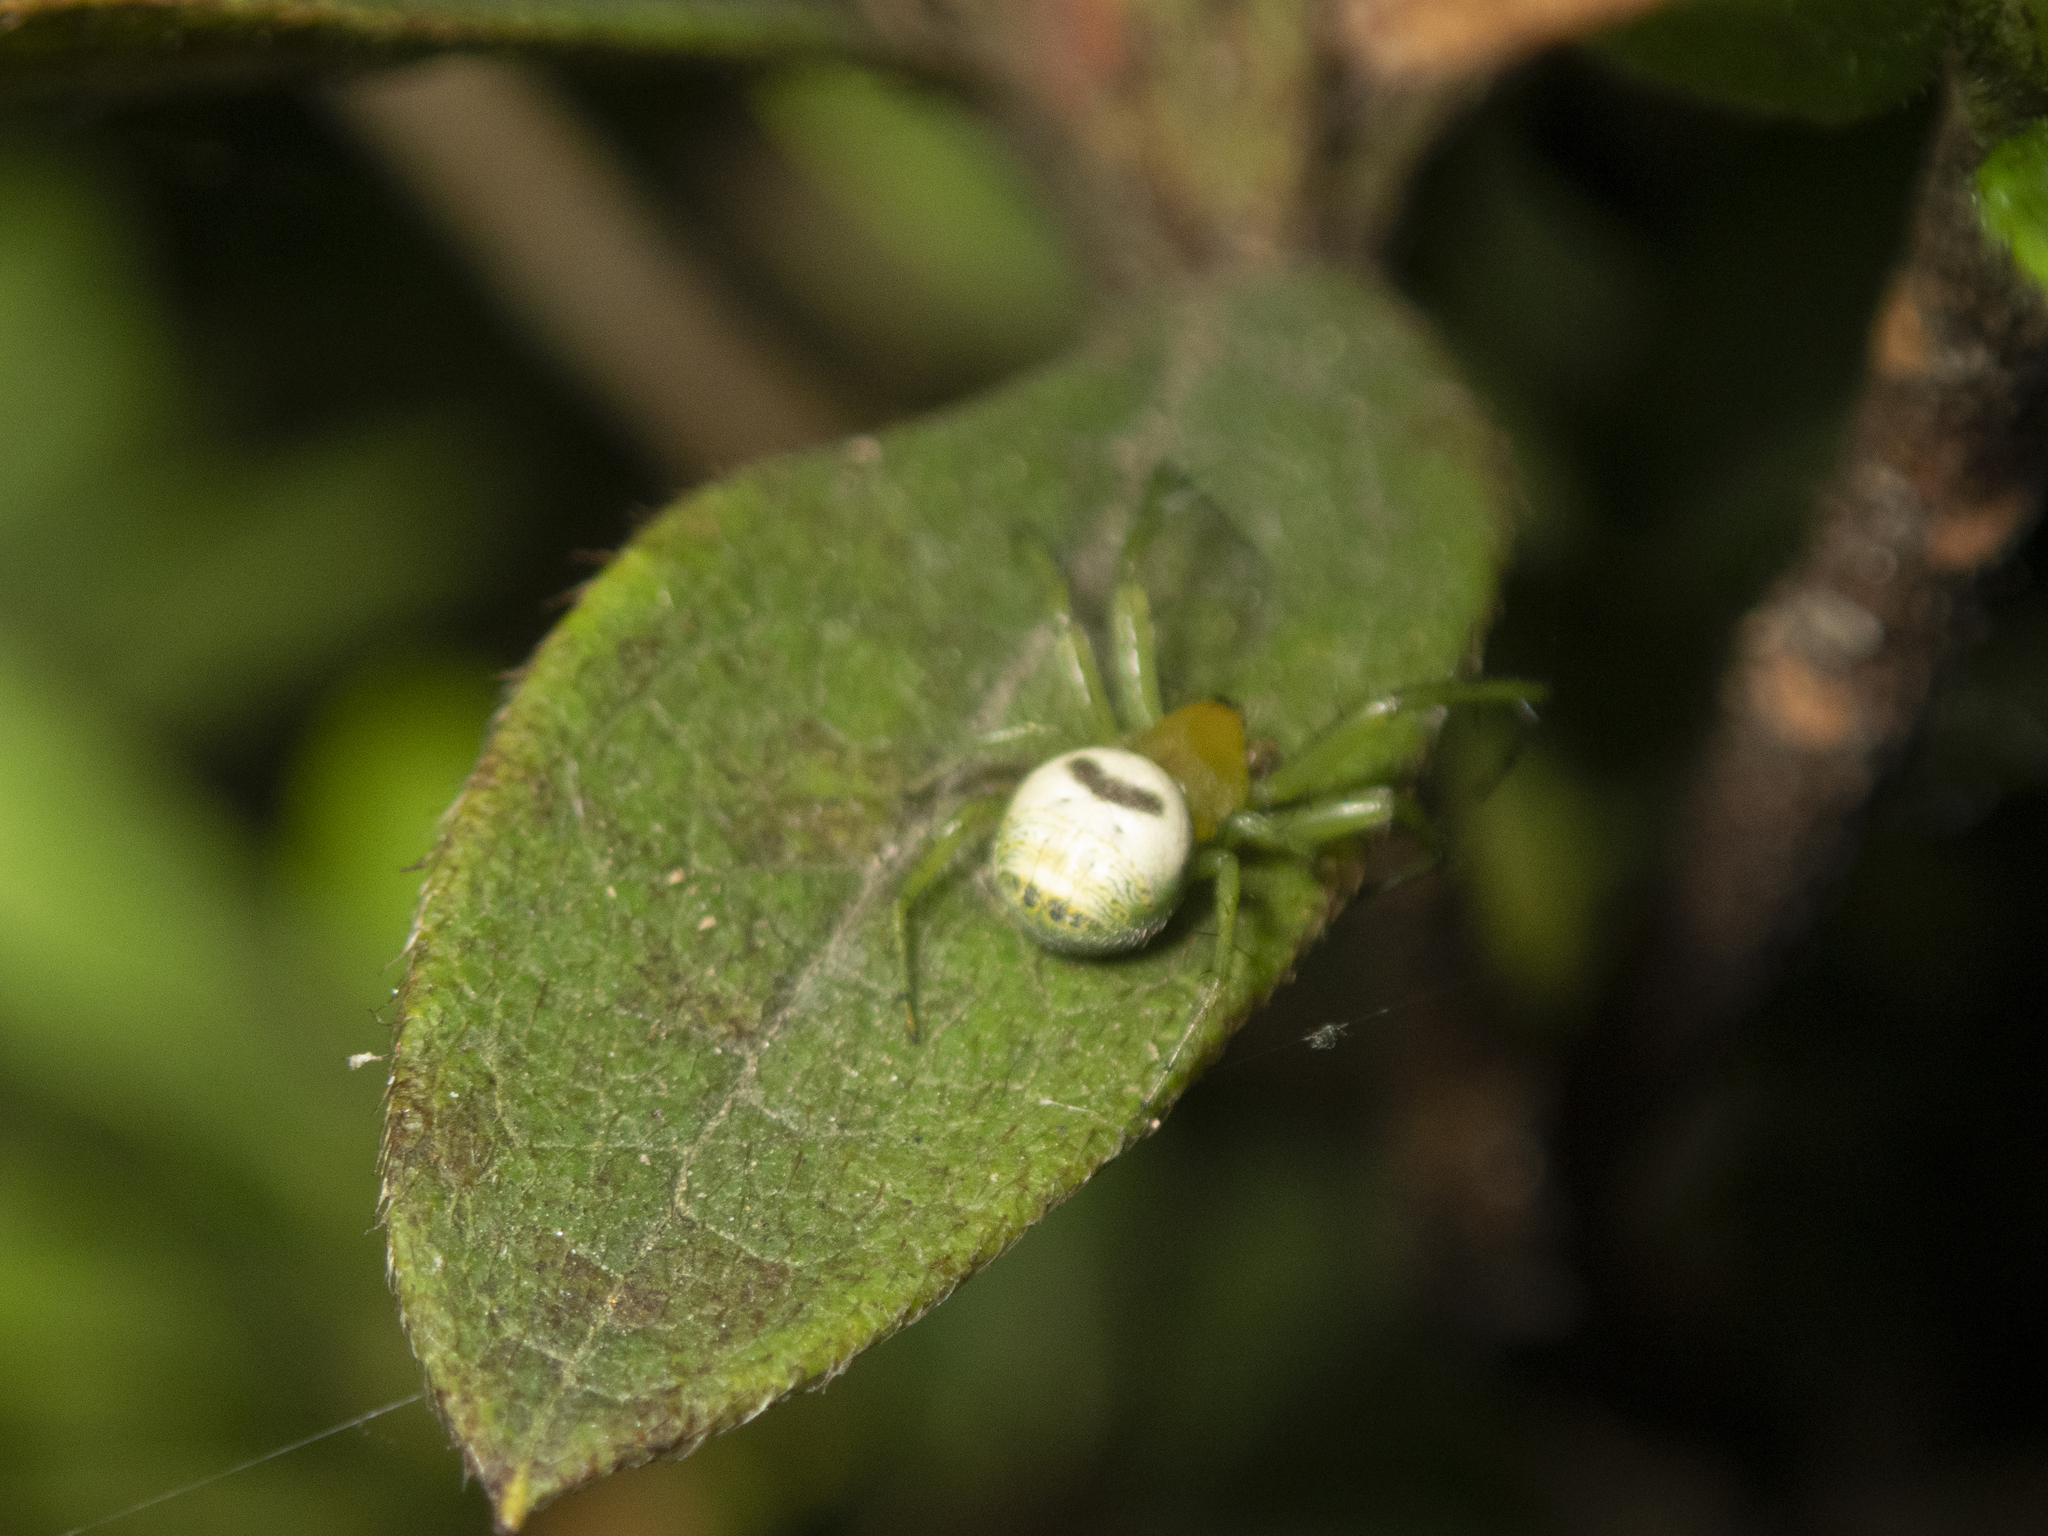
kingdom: Animalia
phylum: Arthropoda
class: Arachnida
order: Araneae
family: Araneidae
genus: Bijoaraneus
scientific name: Bijoaraneus mitificus
